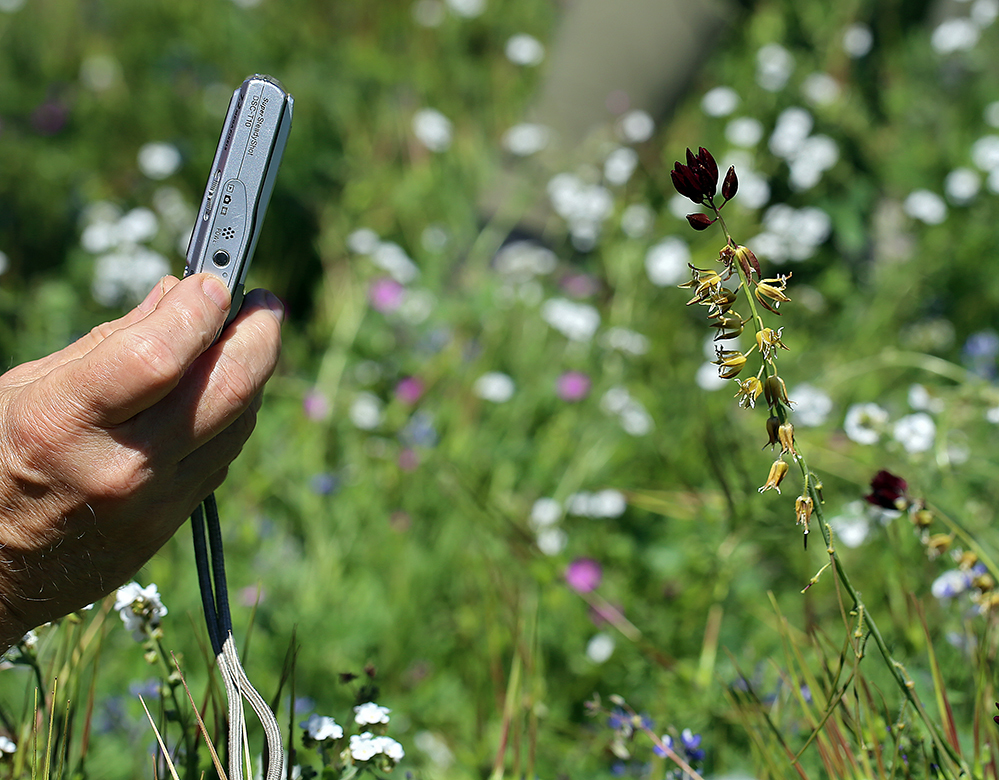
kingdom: Plantae
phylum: Tracheophyta
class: Magnoliopsida
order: Brassicales
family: Brassicaceae
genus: Streptanthus
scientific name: Streptanthus coulteri
